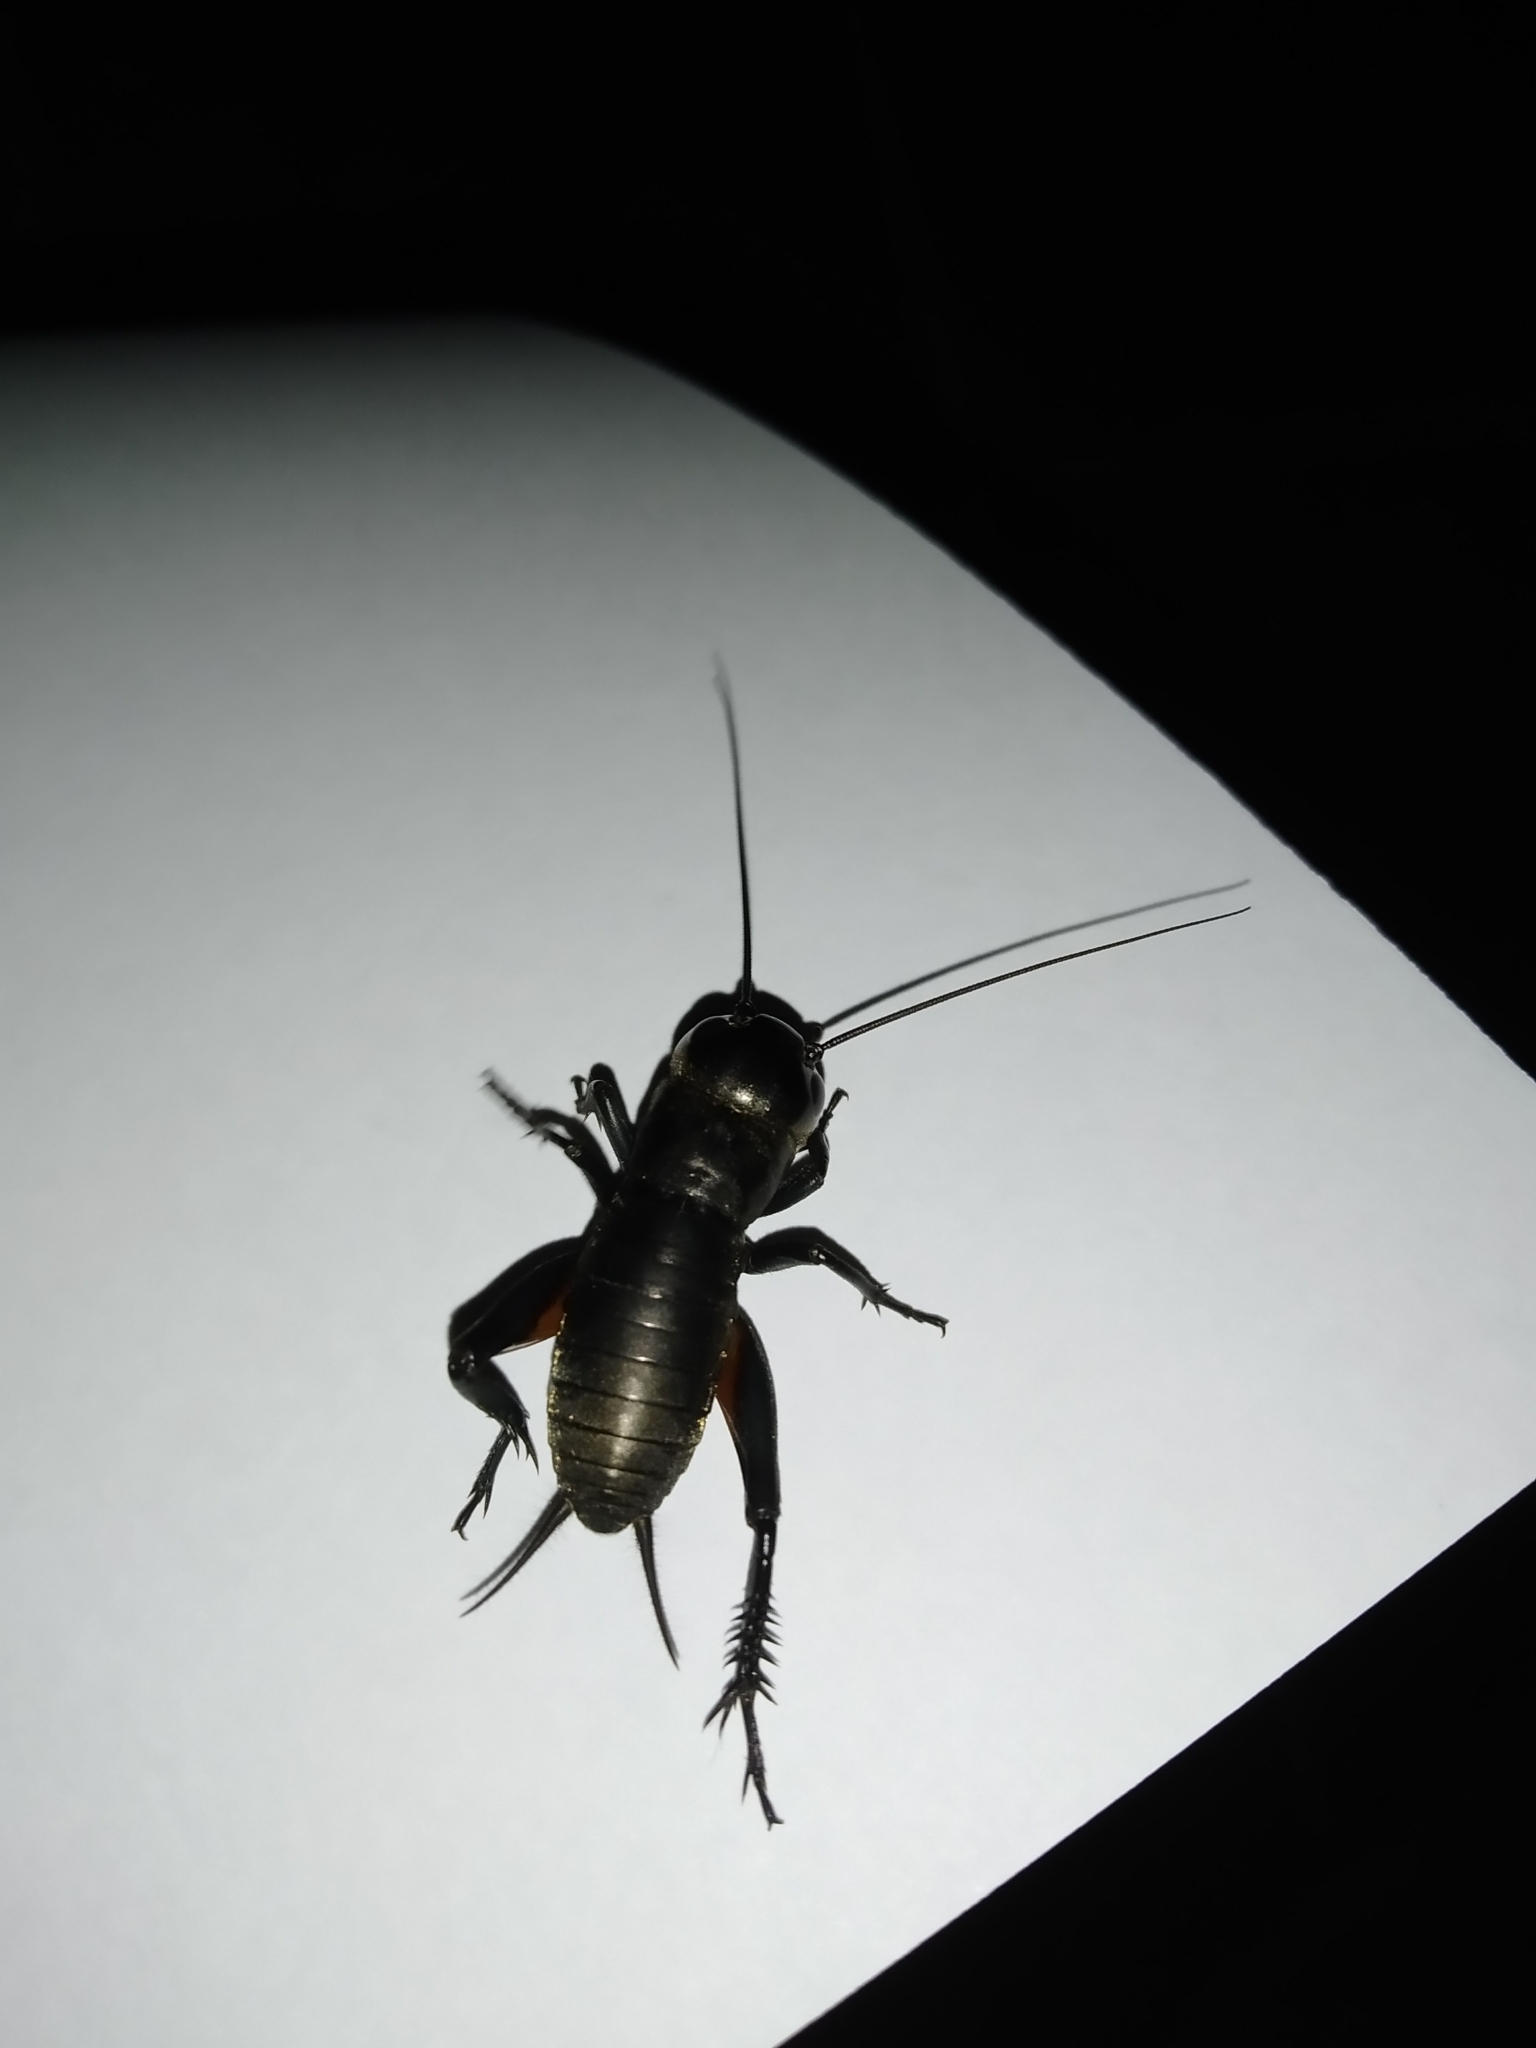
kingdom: Animalia
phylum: Arthropoda
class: Insecta
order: Orthoptera
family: Gryllidae
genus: Gryllus
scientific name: Gryllus campestris
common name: Field cricket
